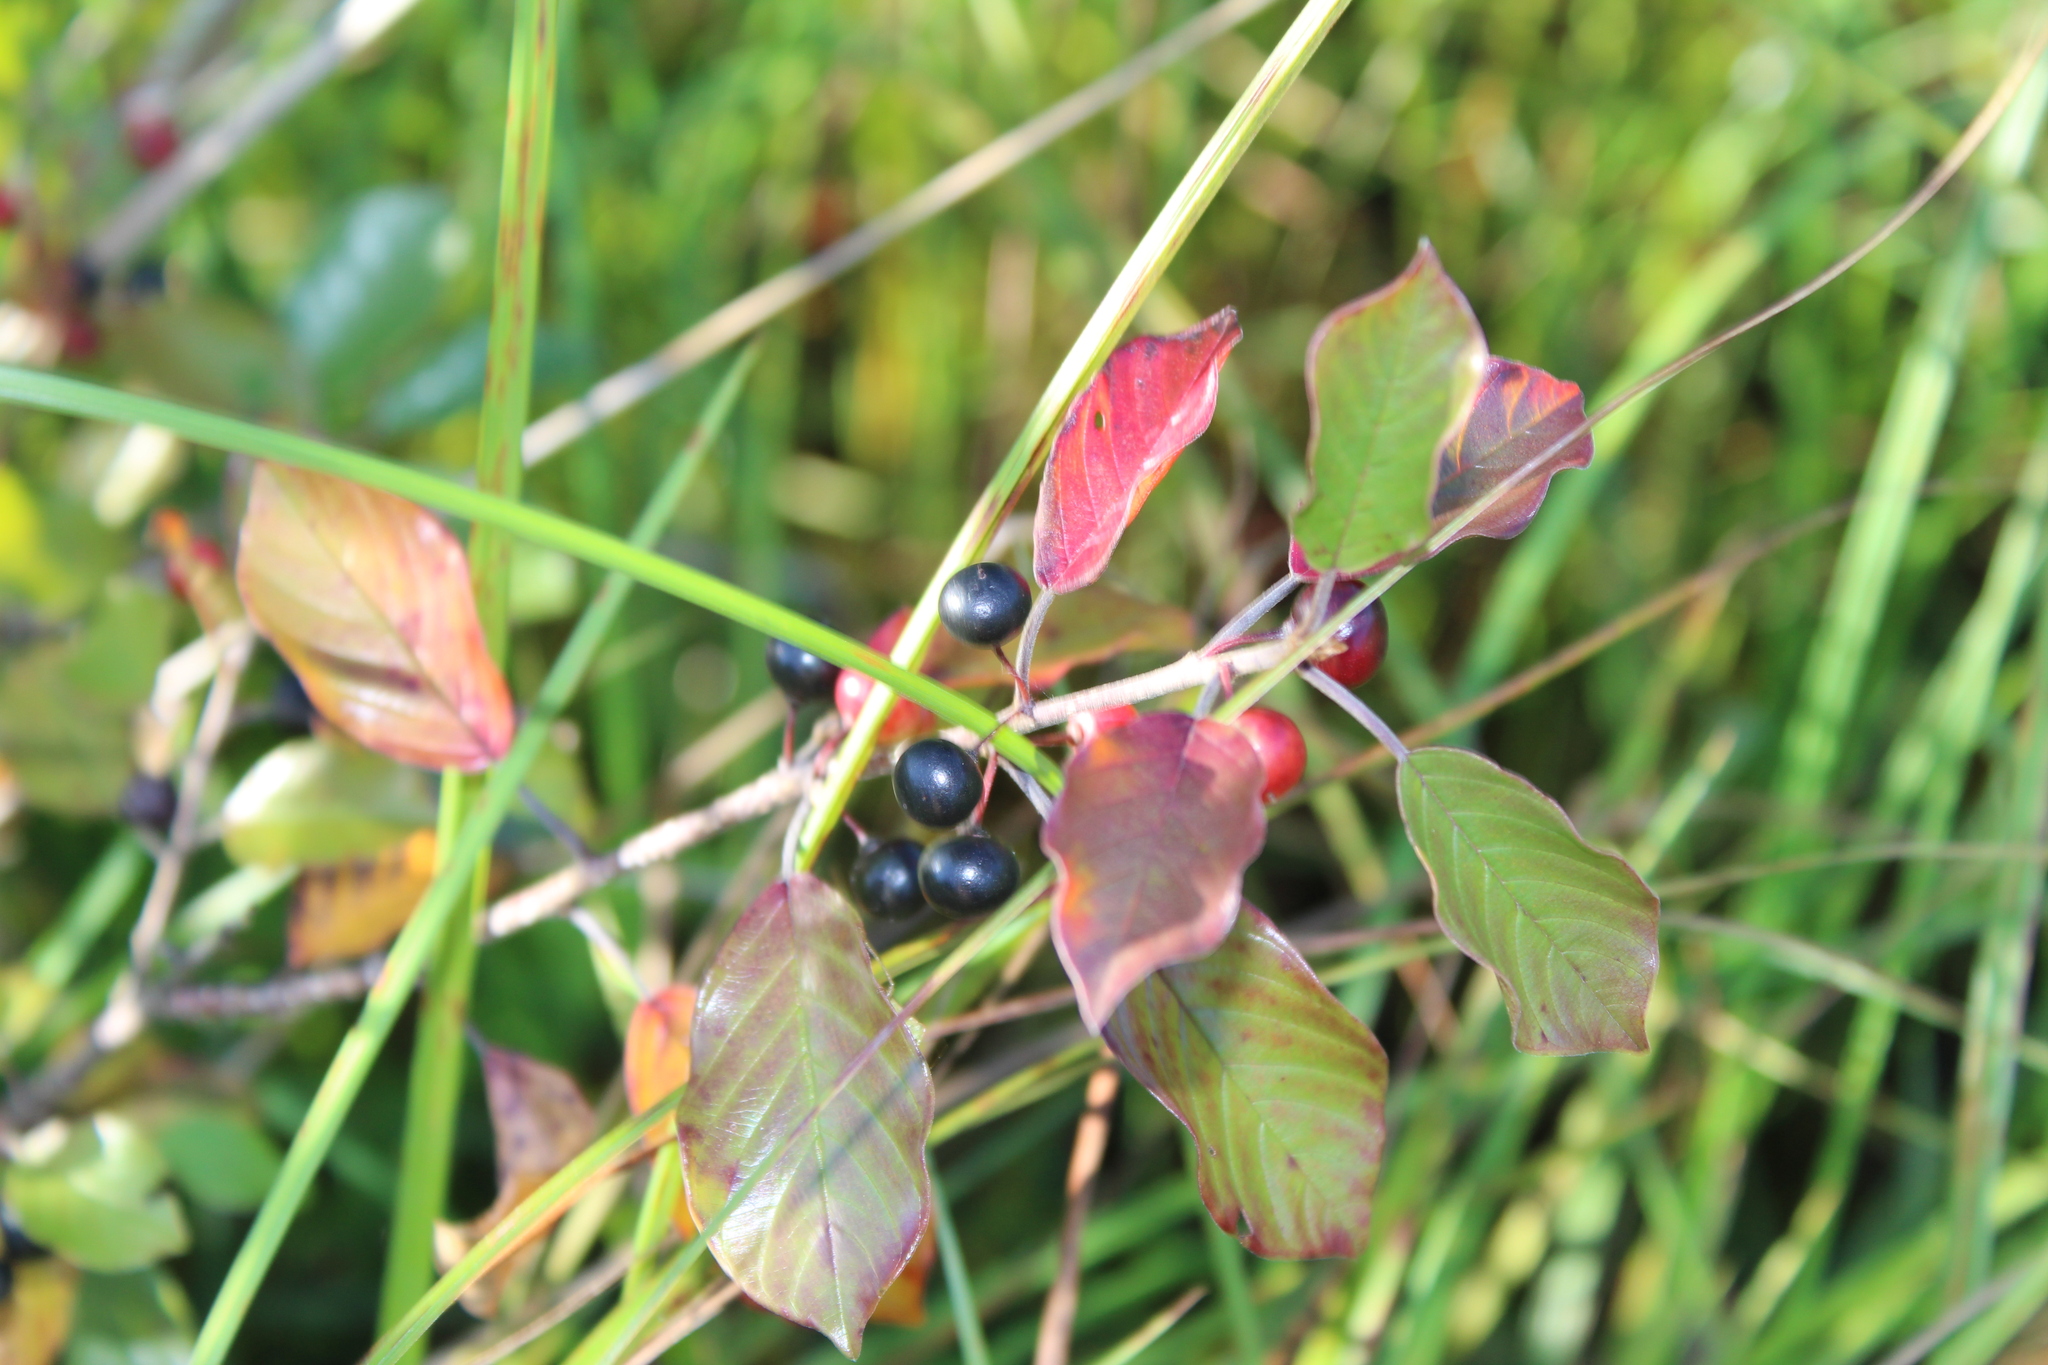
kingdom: Plantae
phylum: Tracheophyta
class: Magnoliopsida
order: Rosales
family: Rhamnaceae
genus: Frangula
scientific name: Frangula alnus
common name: Alder buckthorn
